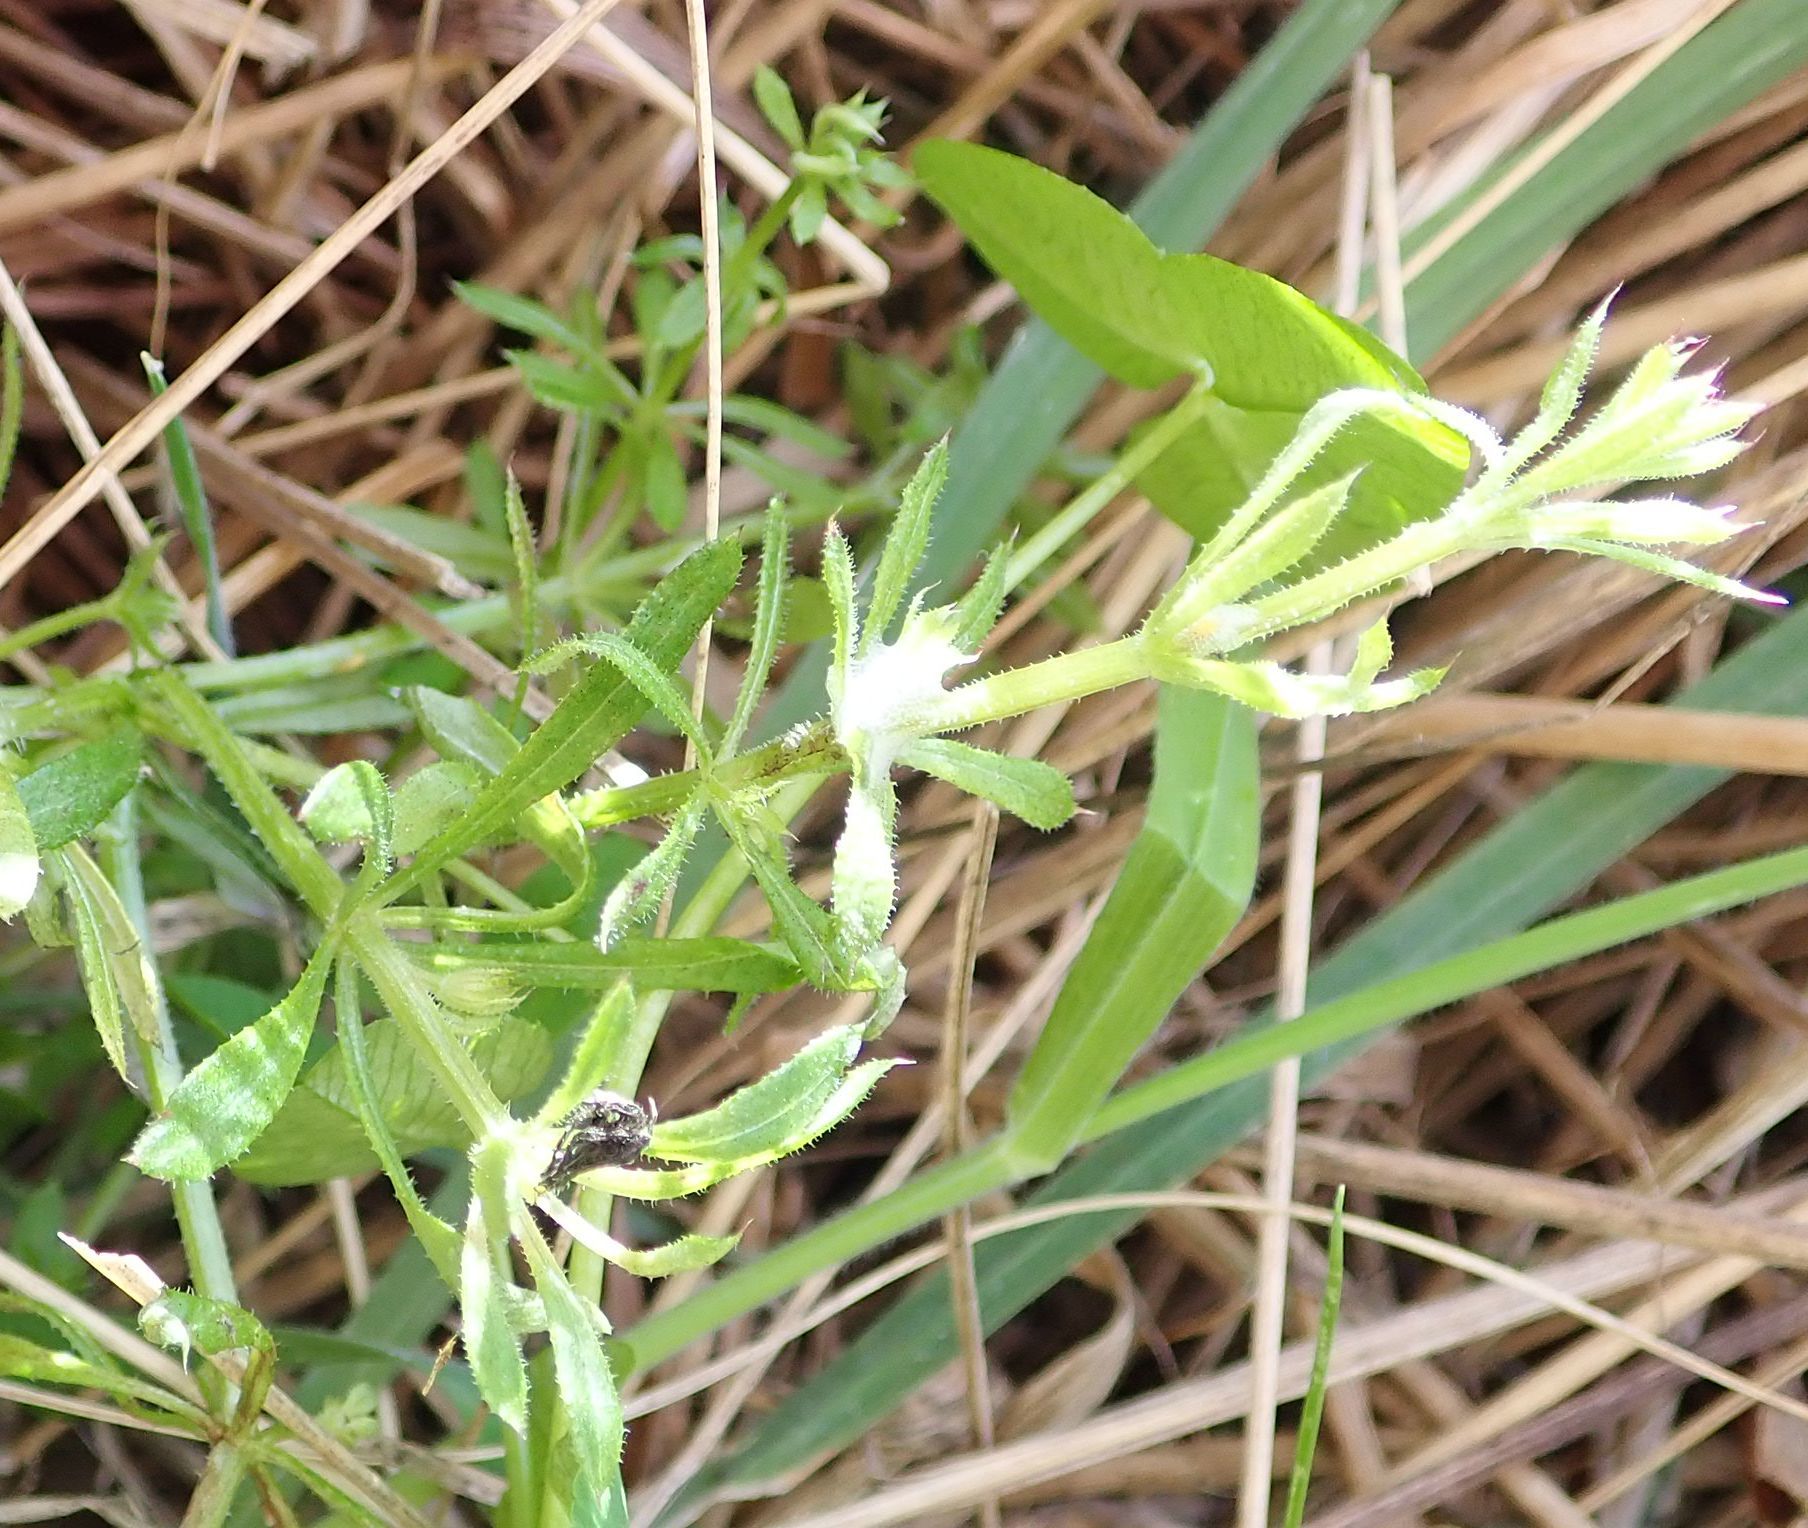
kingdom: Plantae
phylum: Tracheophyta
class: Magnoliopsida
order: Gentianales
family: Rubiaceae
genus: Galium
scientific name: Galium aparine
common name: Cleavers
